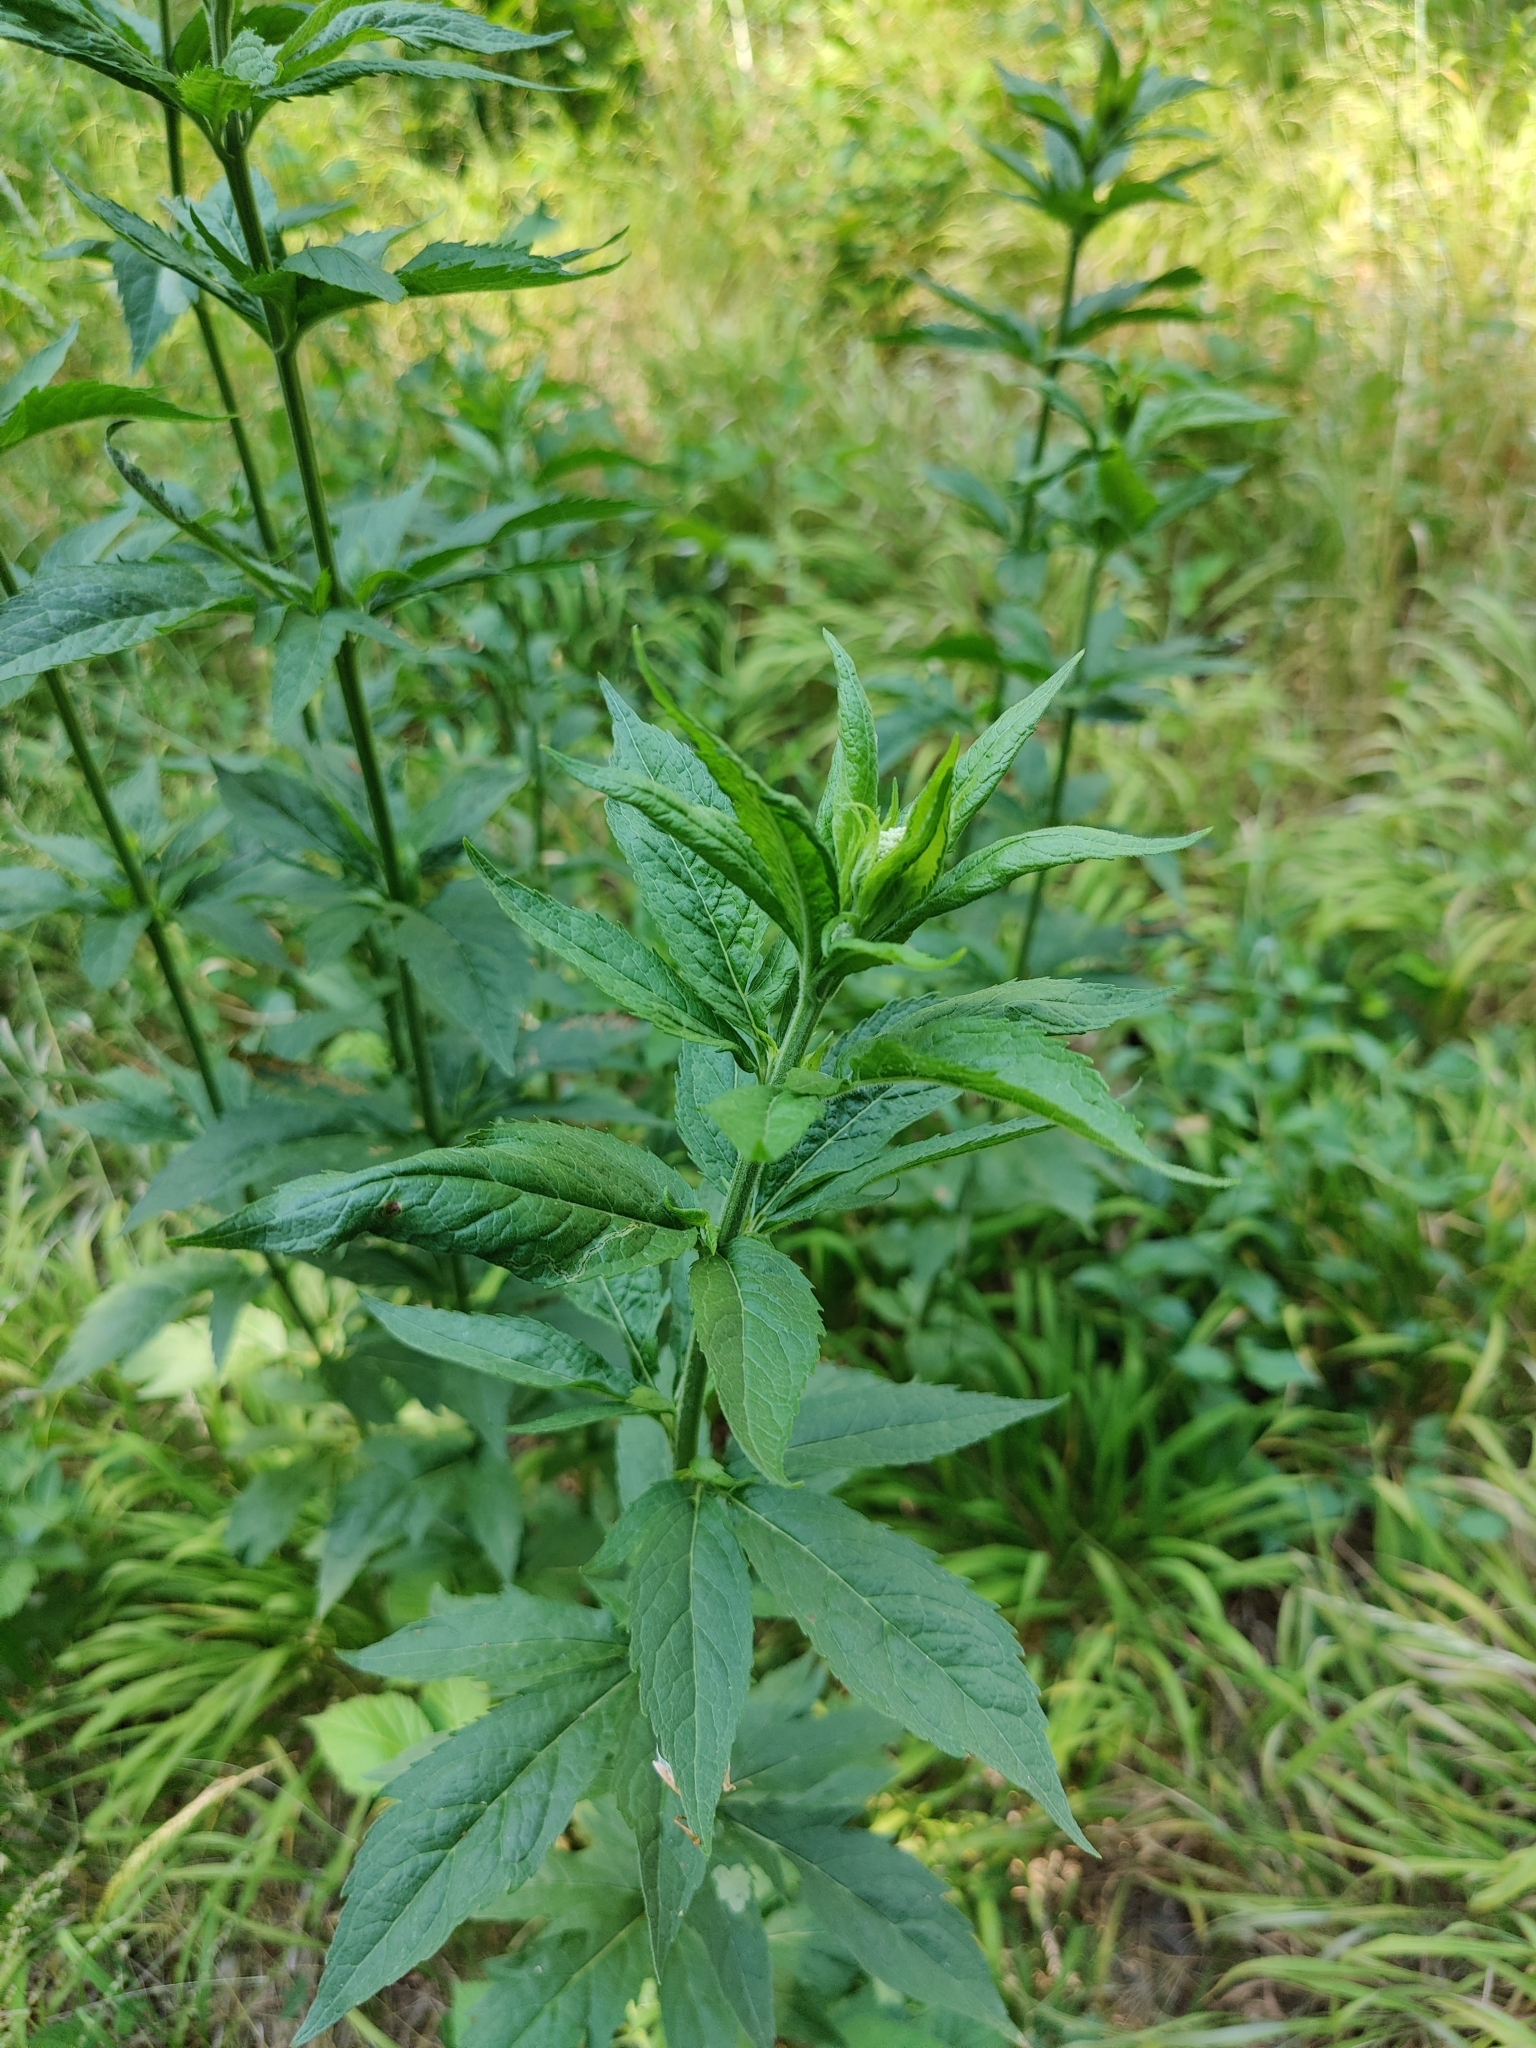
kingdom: Plantae
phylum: Tracheophyta
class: Magnoliopsida
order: Asterales
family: Asteraceae
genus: Eupatorium
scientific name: Eupatorium cannabinum
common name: Hemp-agrimony
